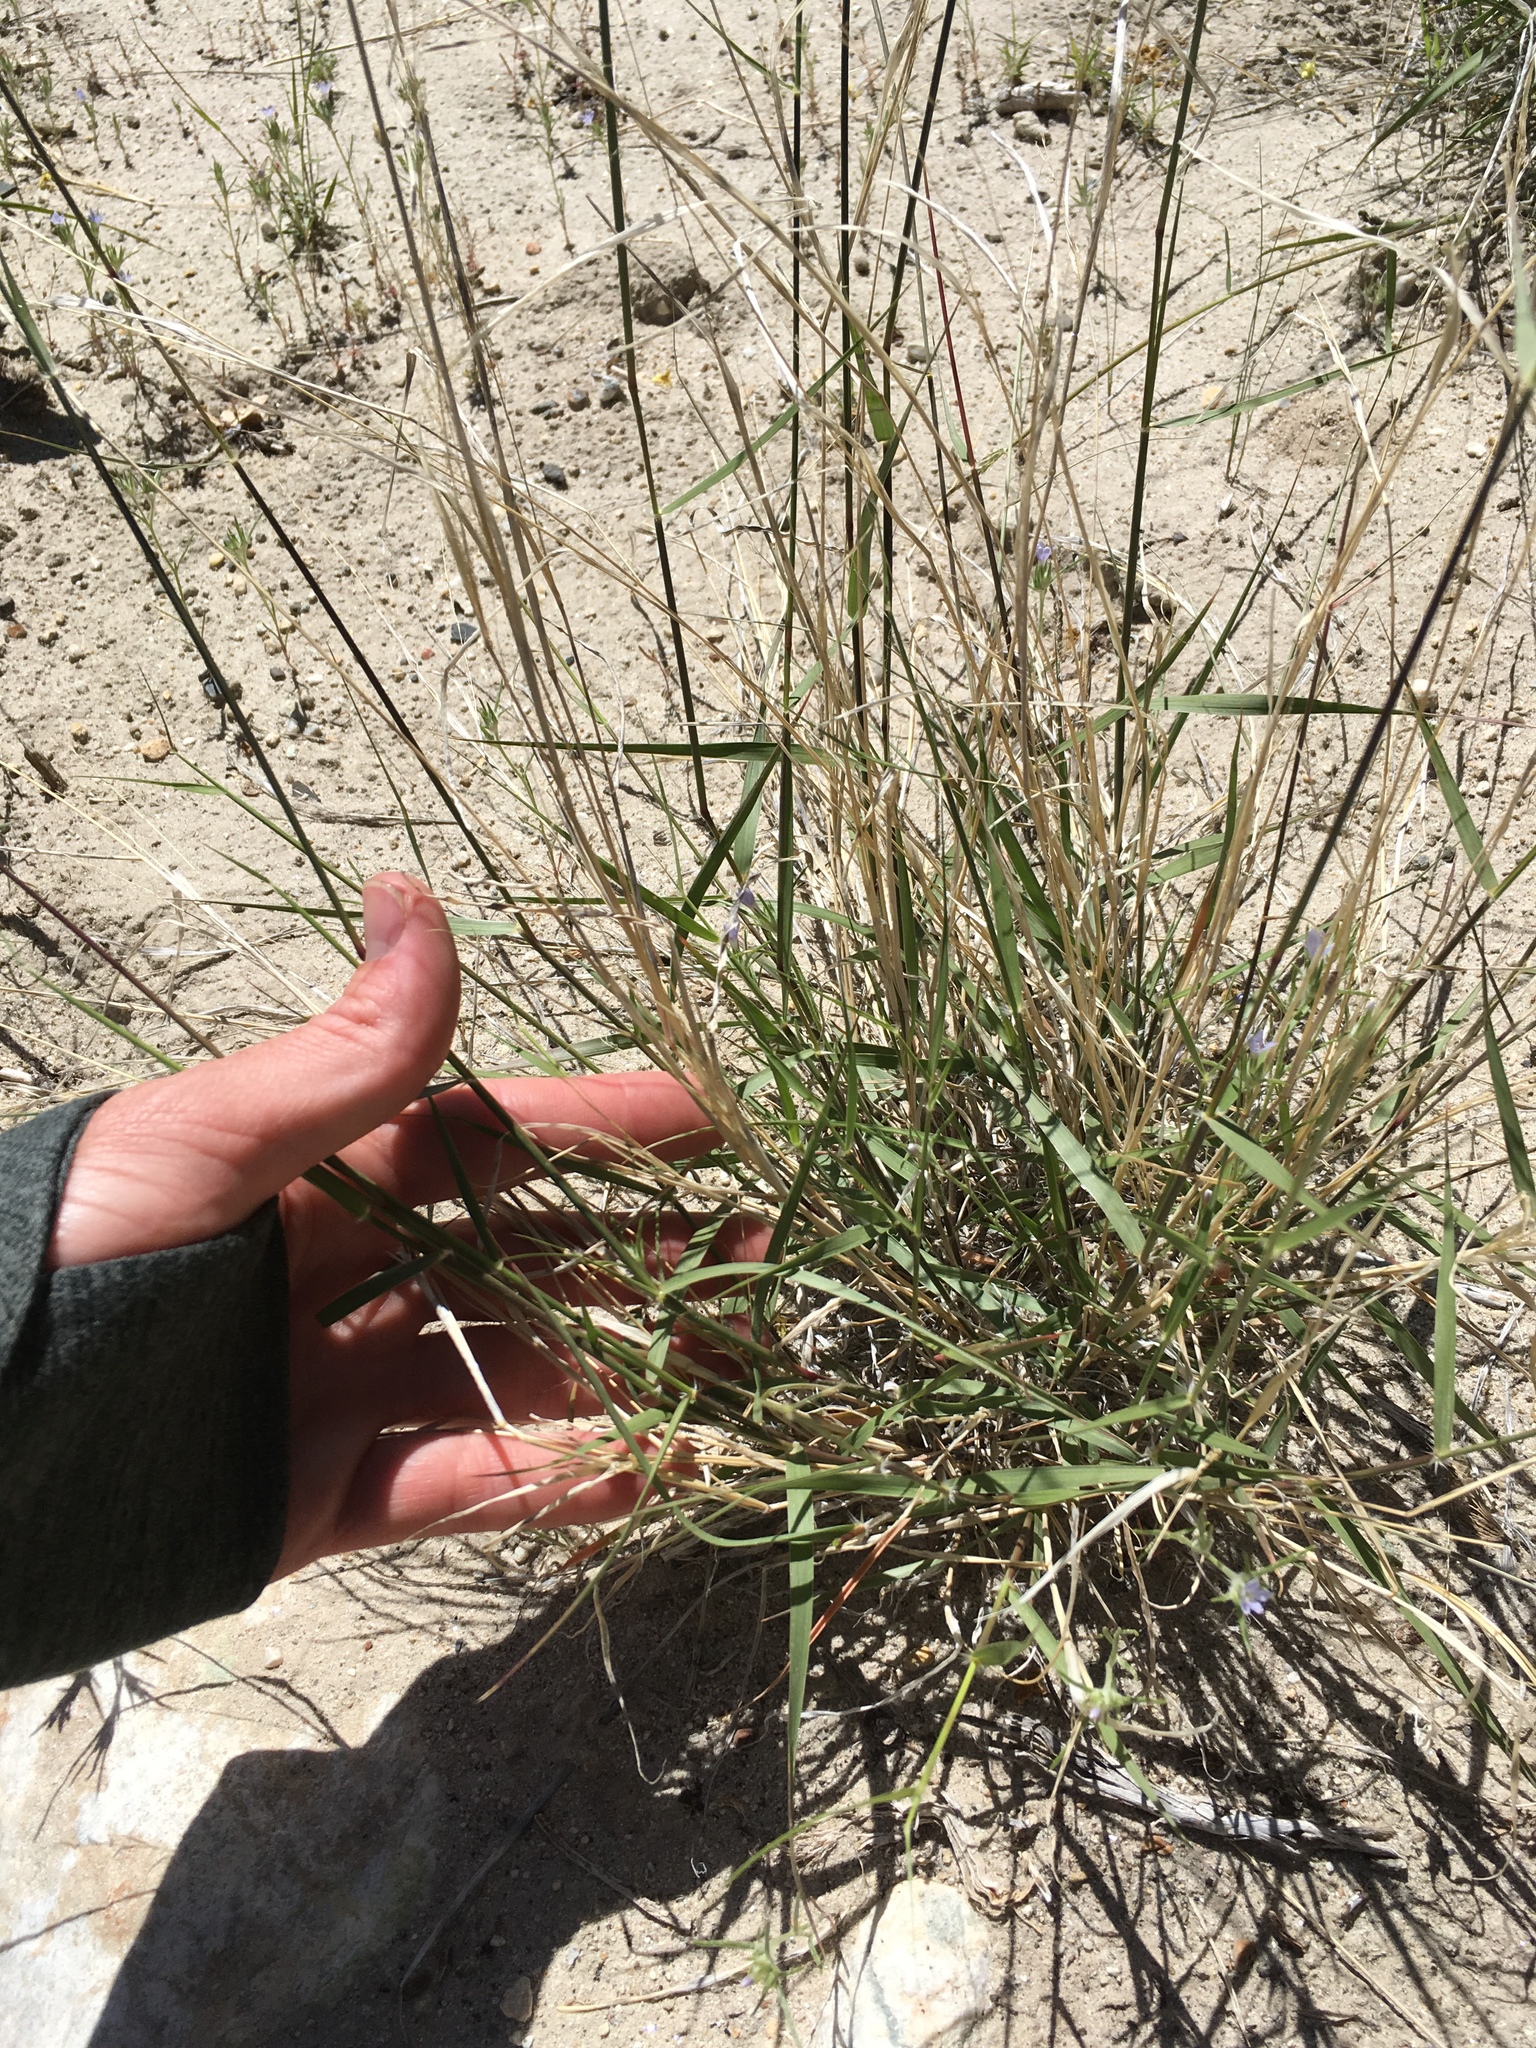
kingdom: Plantae
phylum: Tracheophyta
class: Liliopsida
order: Poales
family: Poaceae
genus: Sporobolus
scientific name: Sporobolus cryptandrus
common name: Sand dropseed
